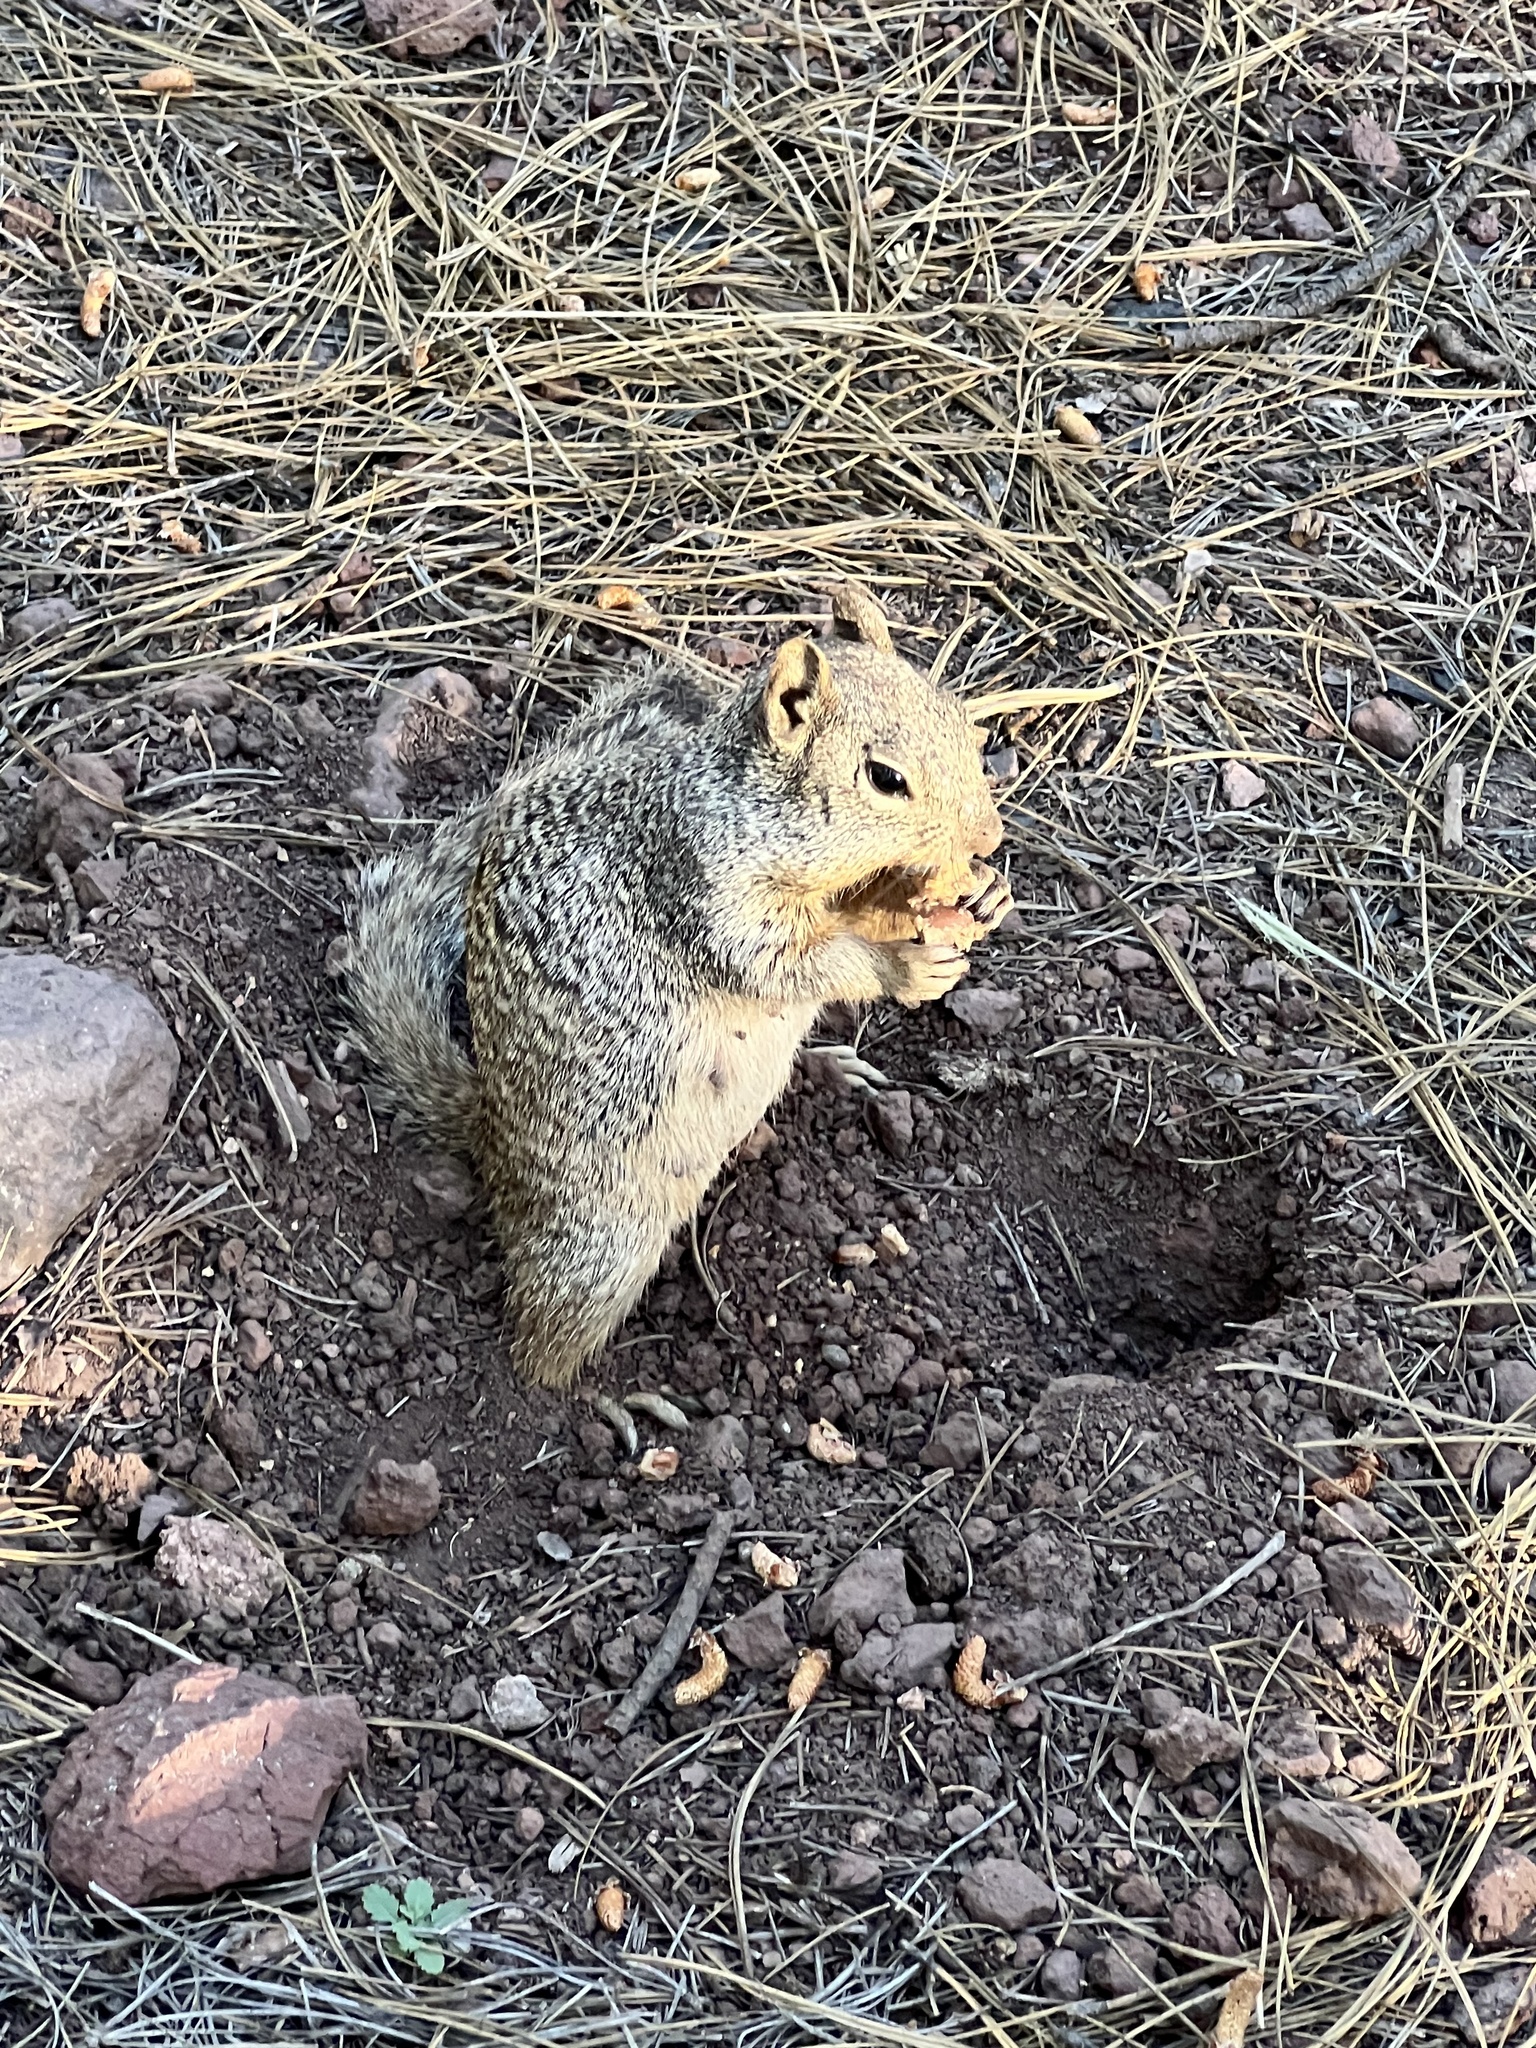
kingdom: Animalia
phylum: Chordata
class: Mammalia
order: Rodentia
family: Sciuridae
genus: Otospermophilus
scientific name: Otospermophilus variegatus
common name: Rock squirrel
